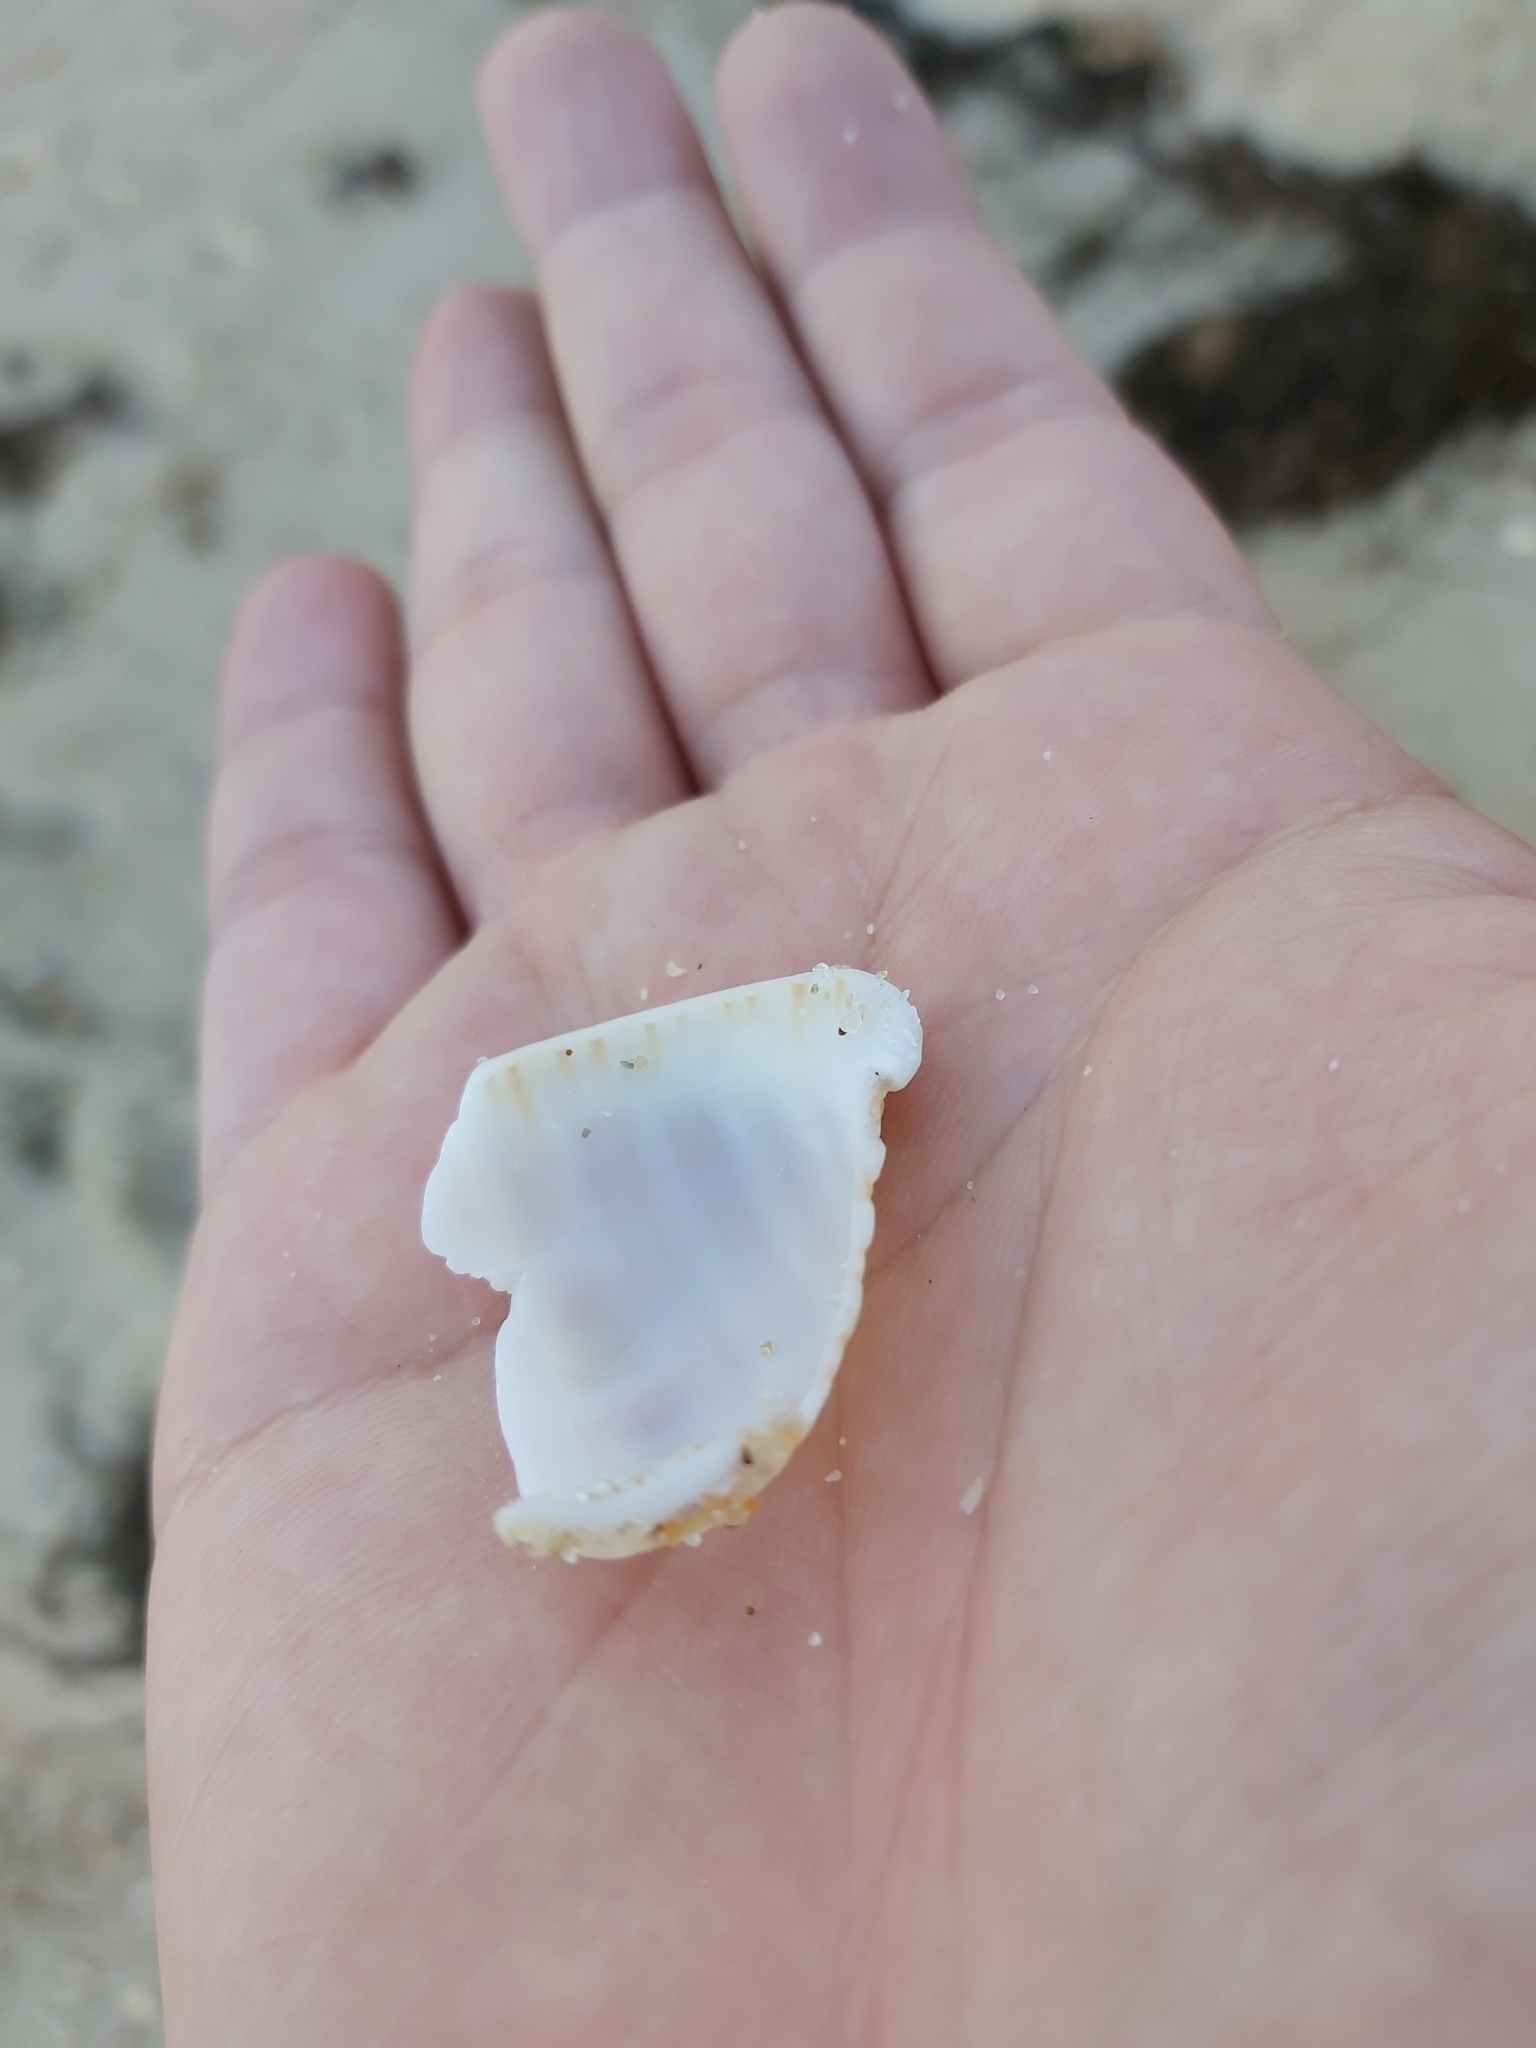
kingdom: Animalia
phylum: Mollusca
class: Gastropoda
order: Littorinimorpha
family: Cymatiidae
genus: Cabestana
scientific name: Cabestana spengleri
